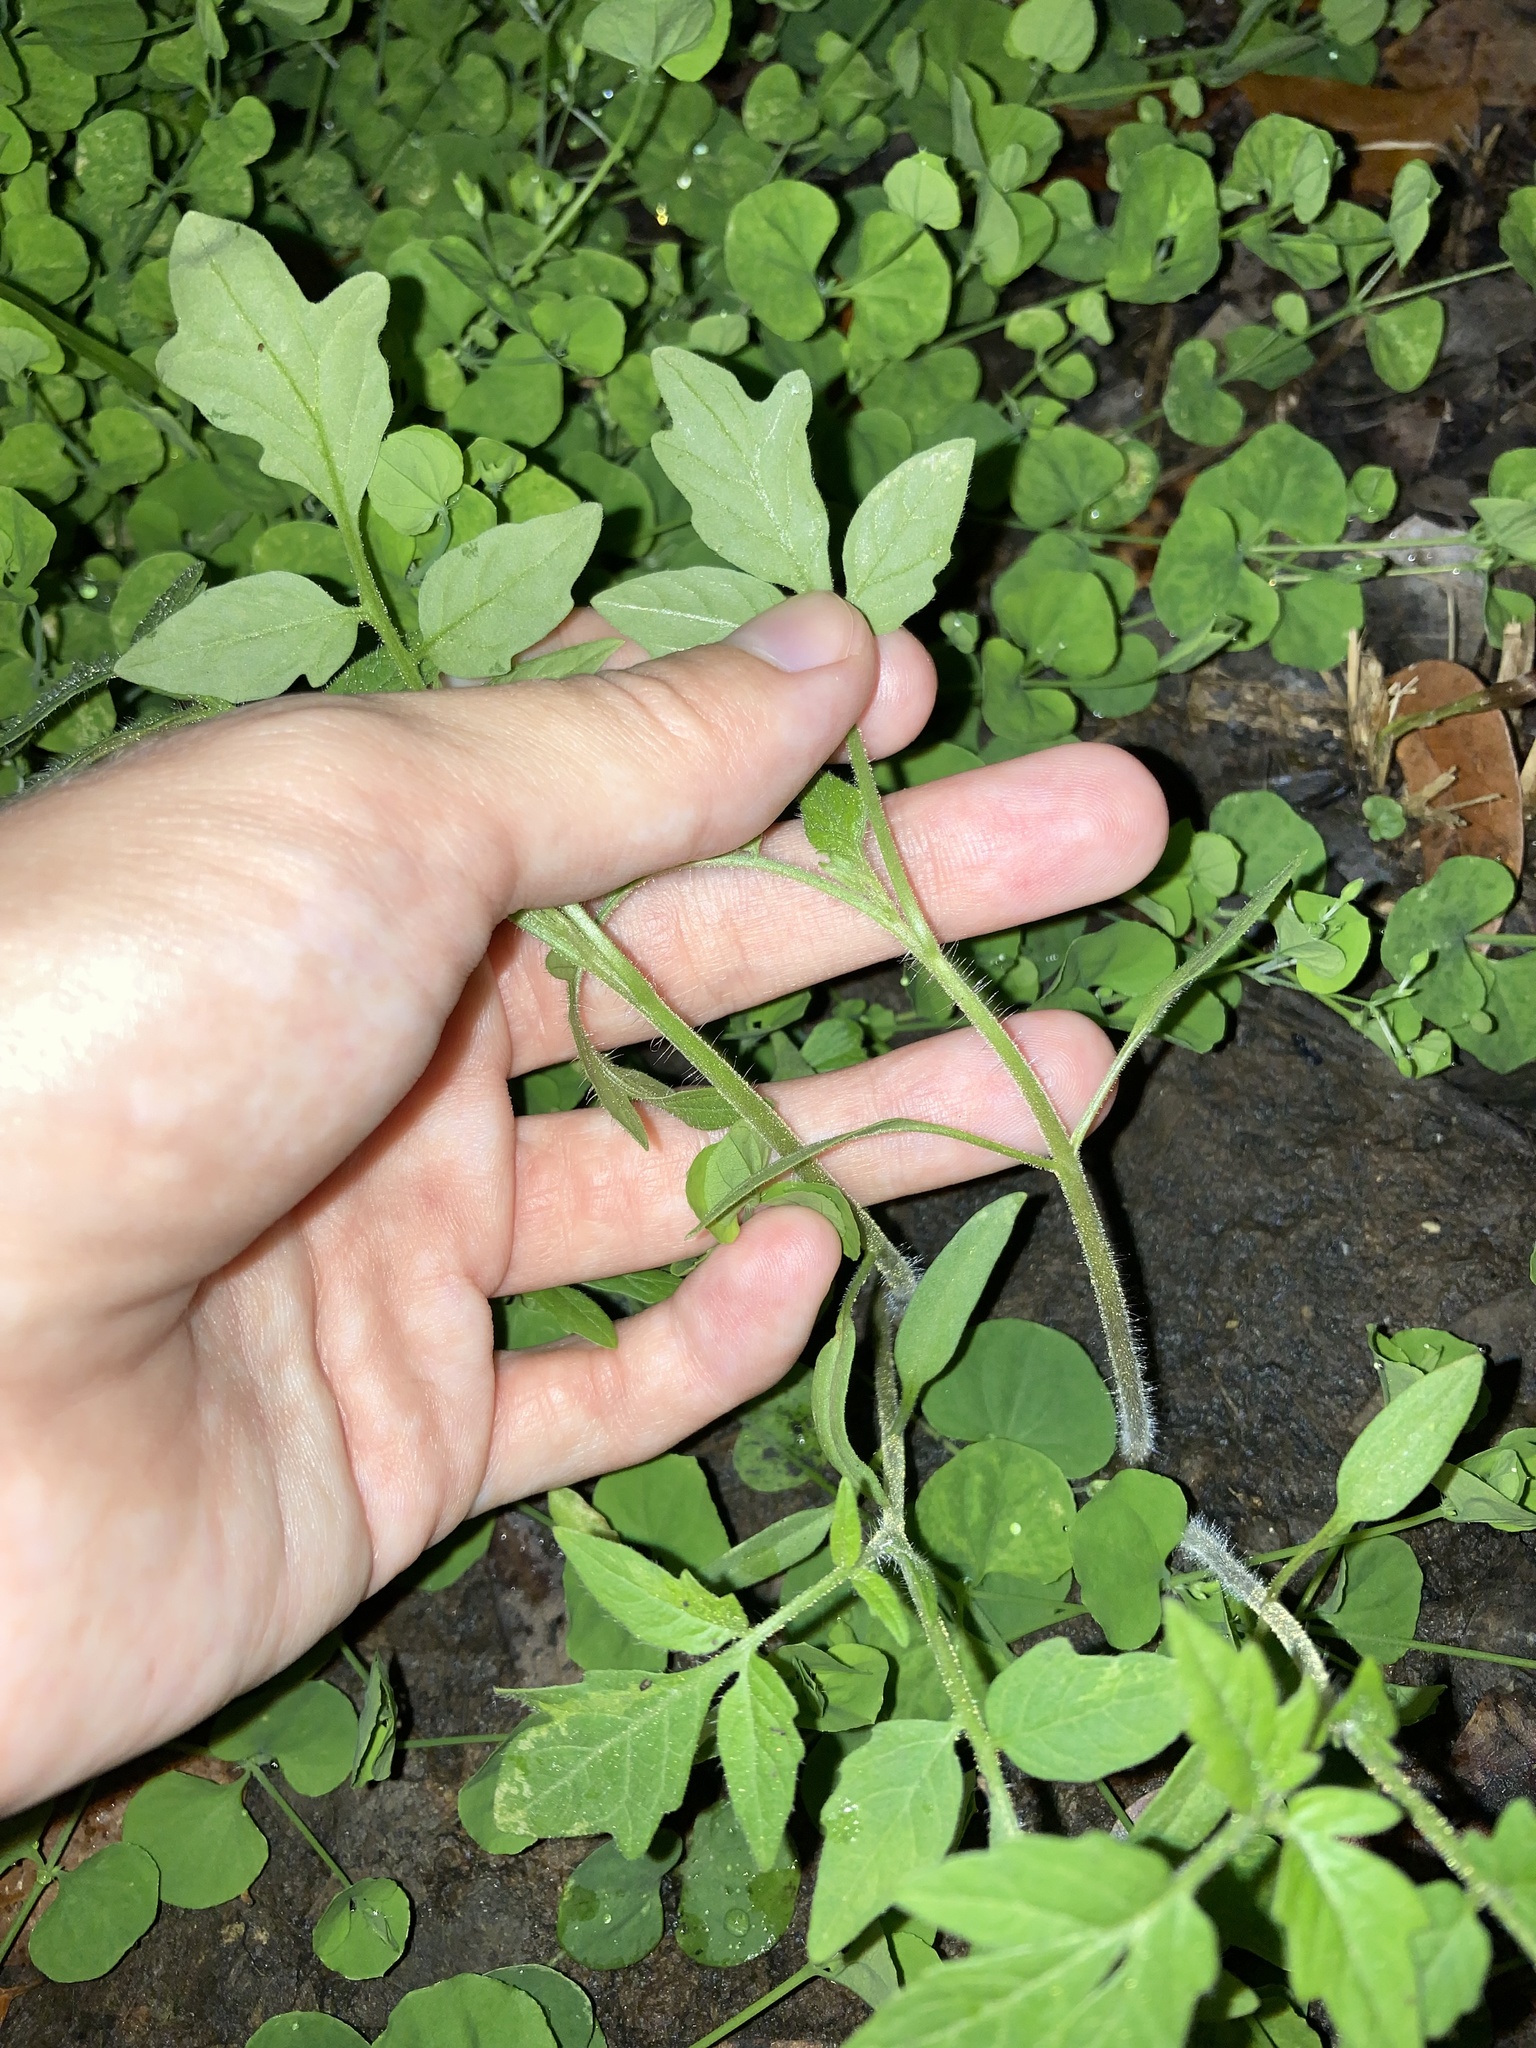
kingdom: Plantae
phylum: Tracheophyta
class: Magnoliopsida
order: Solanales
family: Solanaceae
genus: Solanum
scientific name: Solanum lycopersicum
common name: Garden tomato
